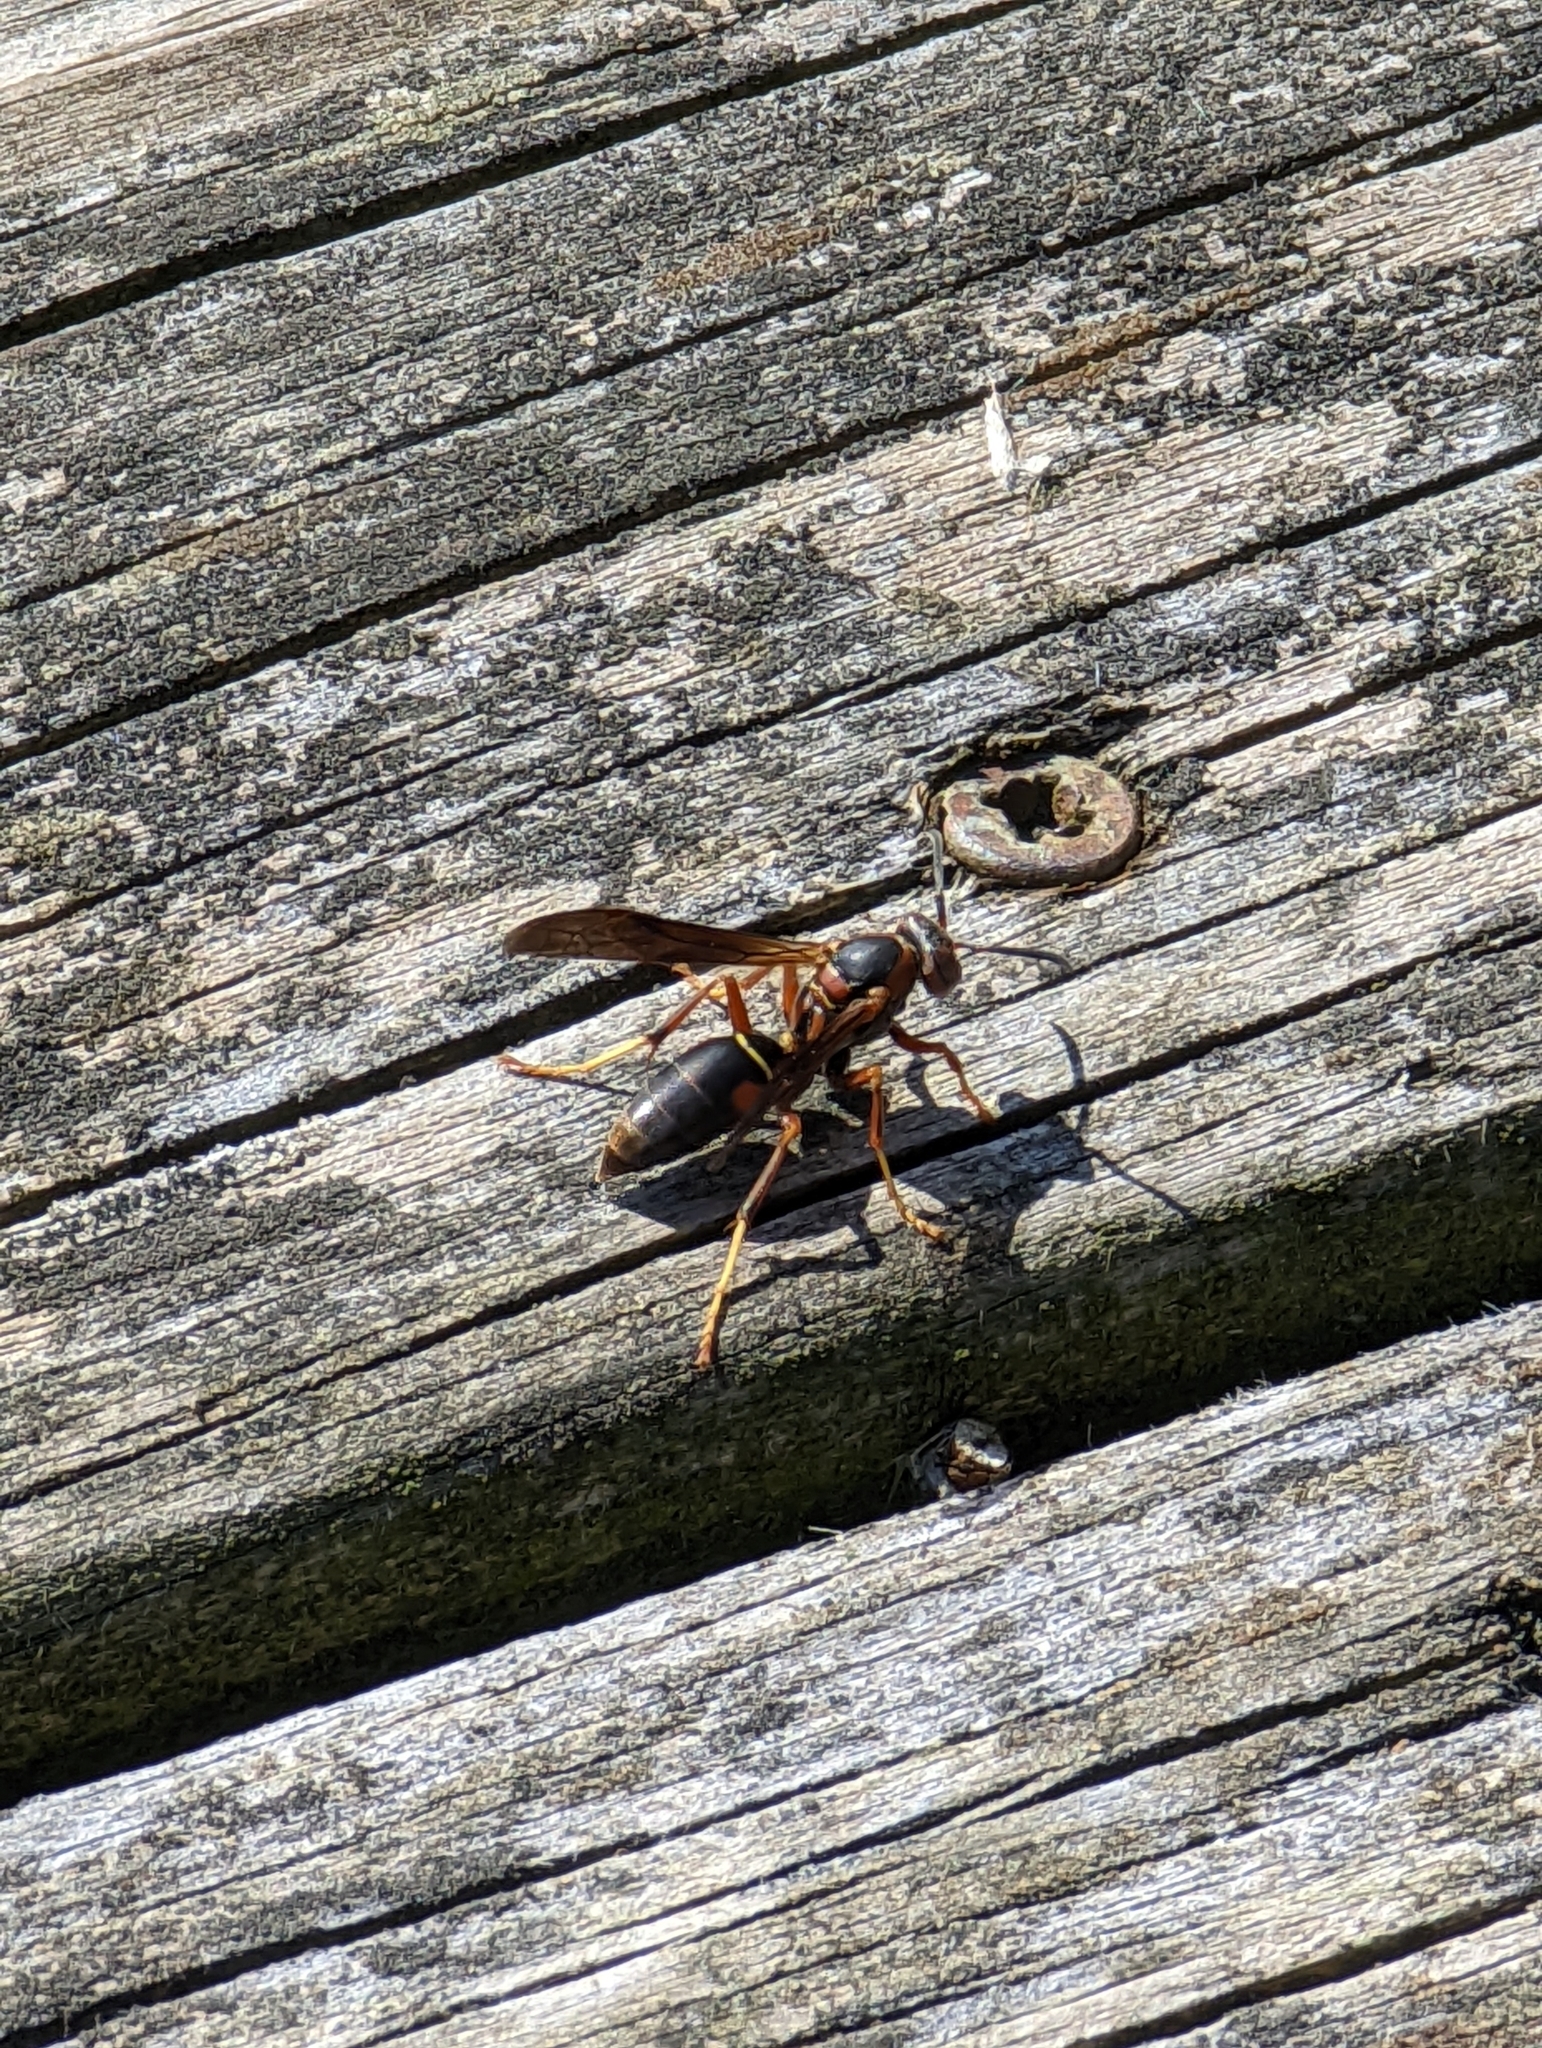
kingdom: Animalia
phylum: Arthropoda
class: Insecta
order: Hymenoptera
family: Eumenidae
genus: Polistes
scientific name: Polistes fuscatus
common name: Dark paper wasp
